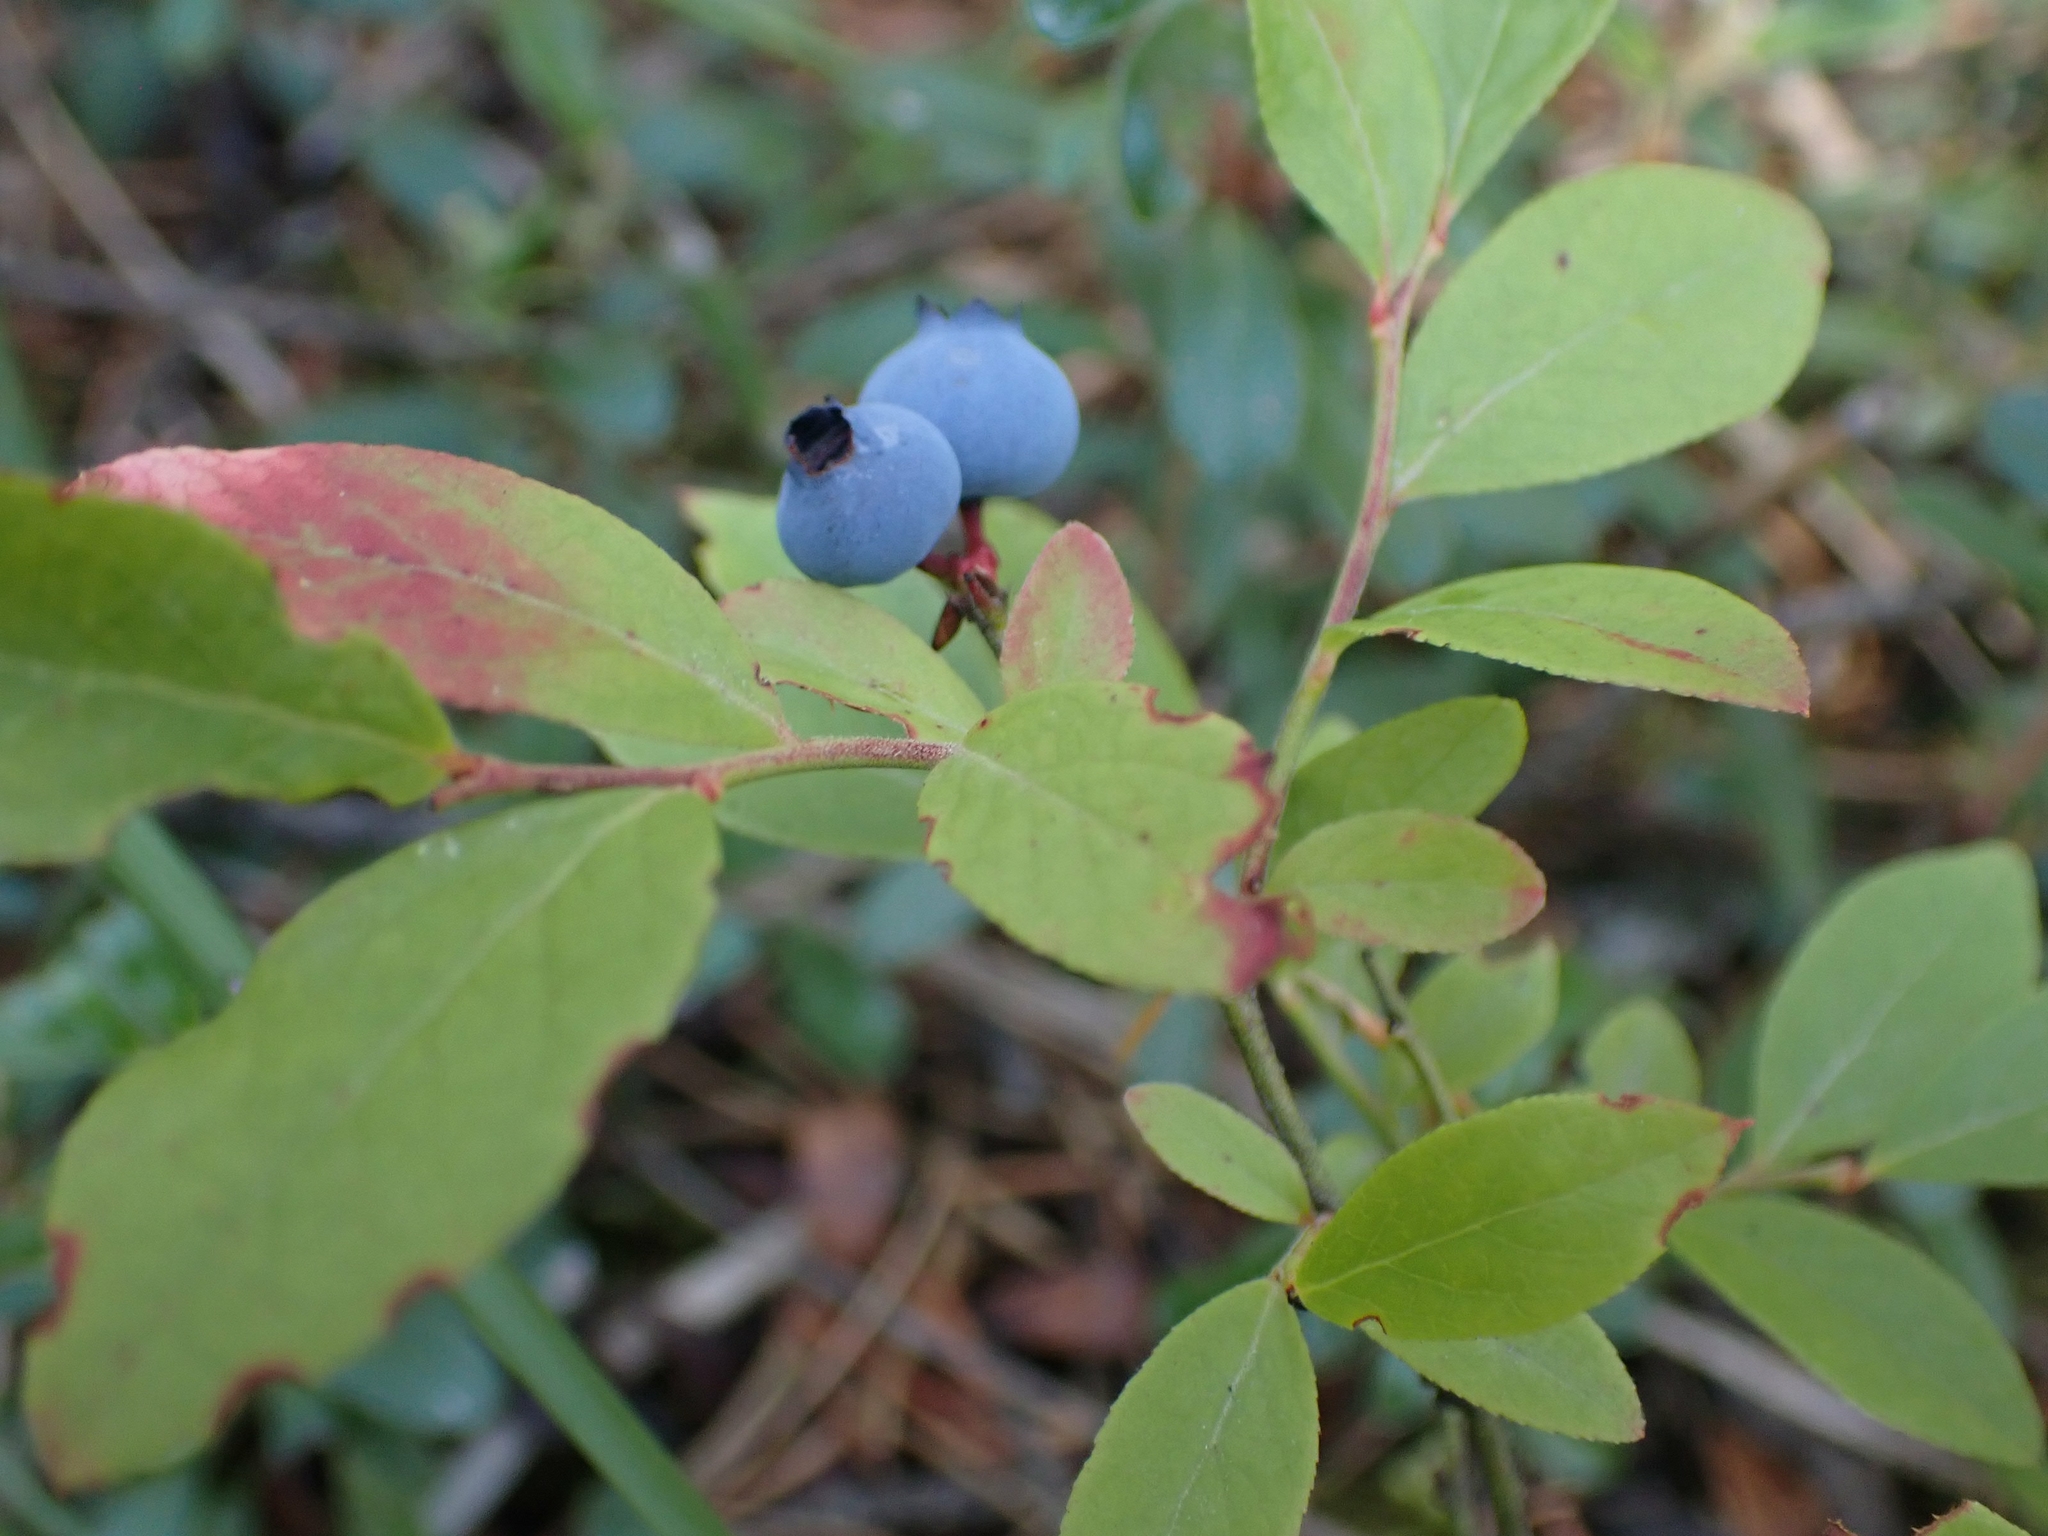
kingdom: Plantae
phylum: Tracheophyta
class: Magnoliopsida
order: Ericales
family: Ericaceae
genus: Vaccinium
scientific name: Vaccinium angustifolium
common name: Early lowbush blueberry
